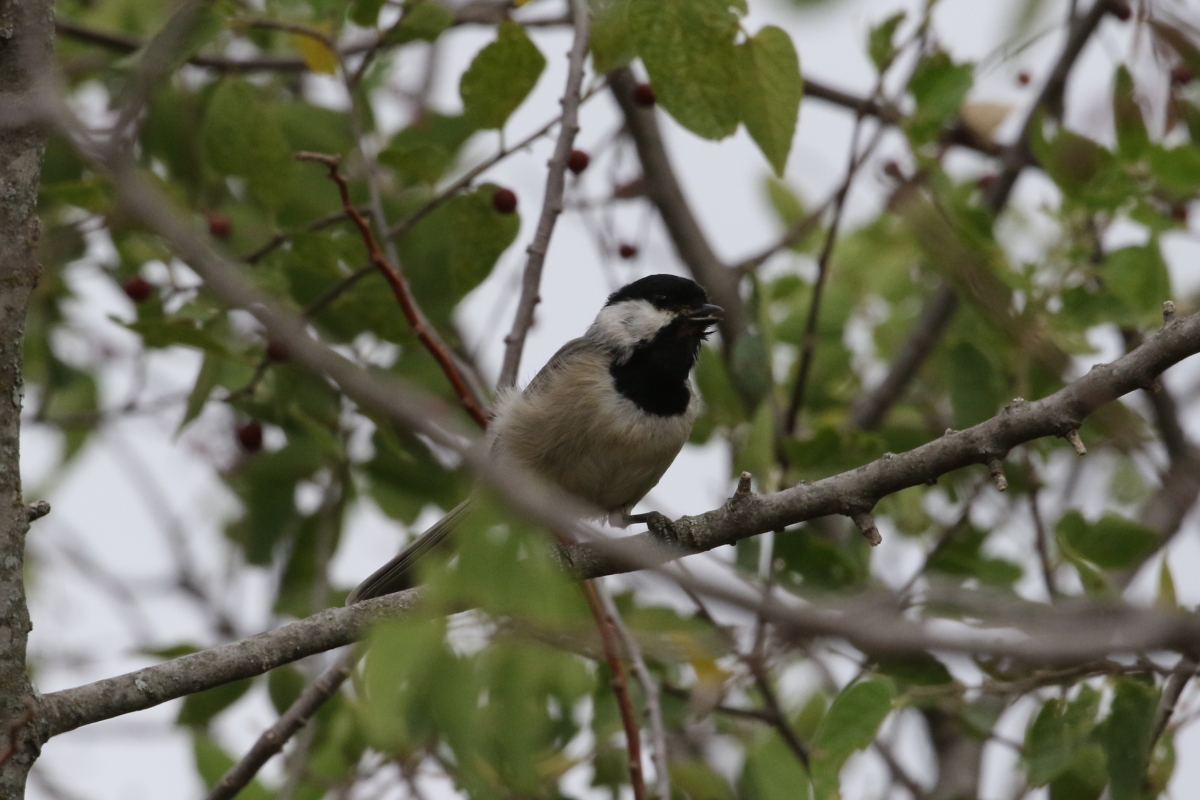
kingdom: Animalia
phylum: Chordata
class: Aves
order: Passeriformes
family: Paridae
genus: Poecile
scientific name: Poecile carolinensis
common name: Carolina chickadee
